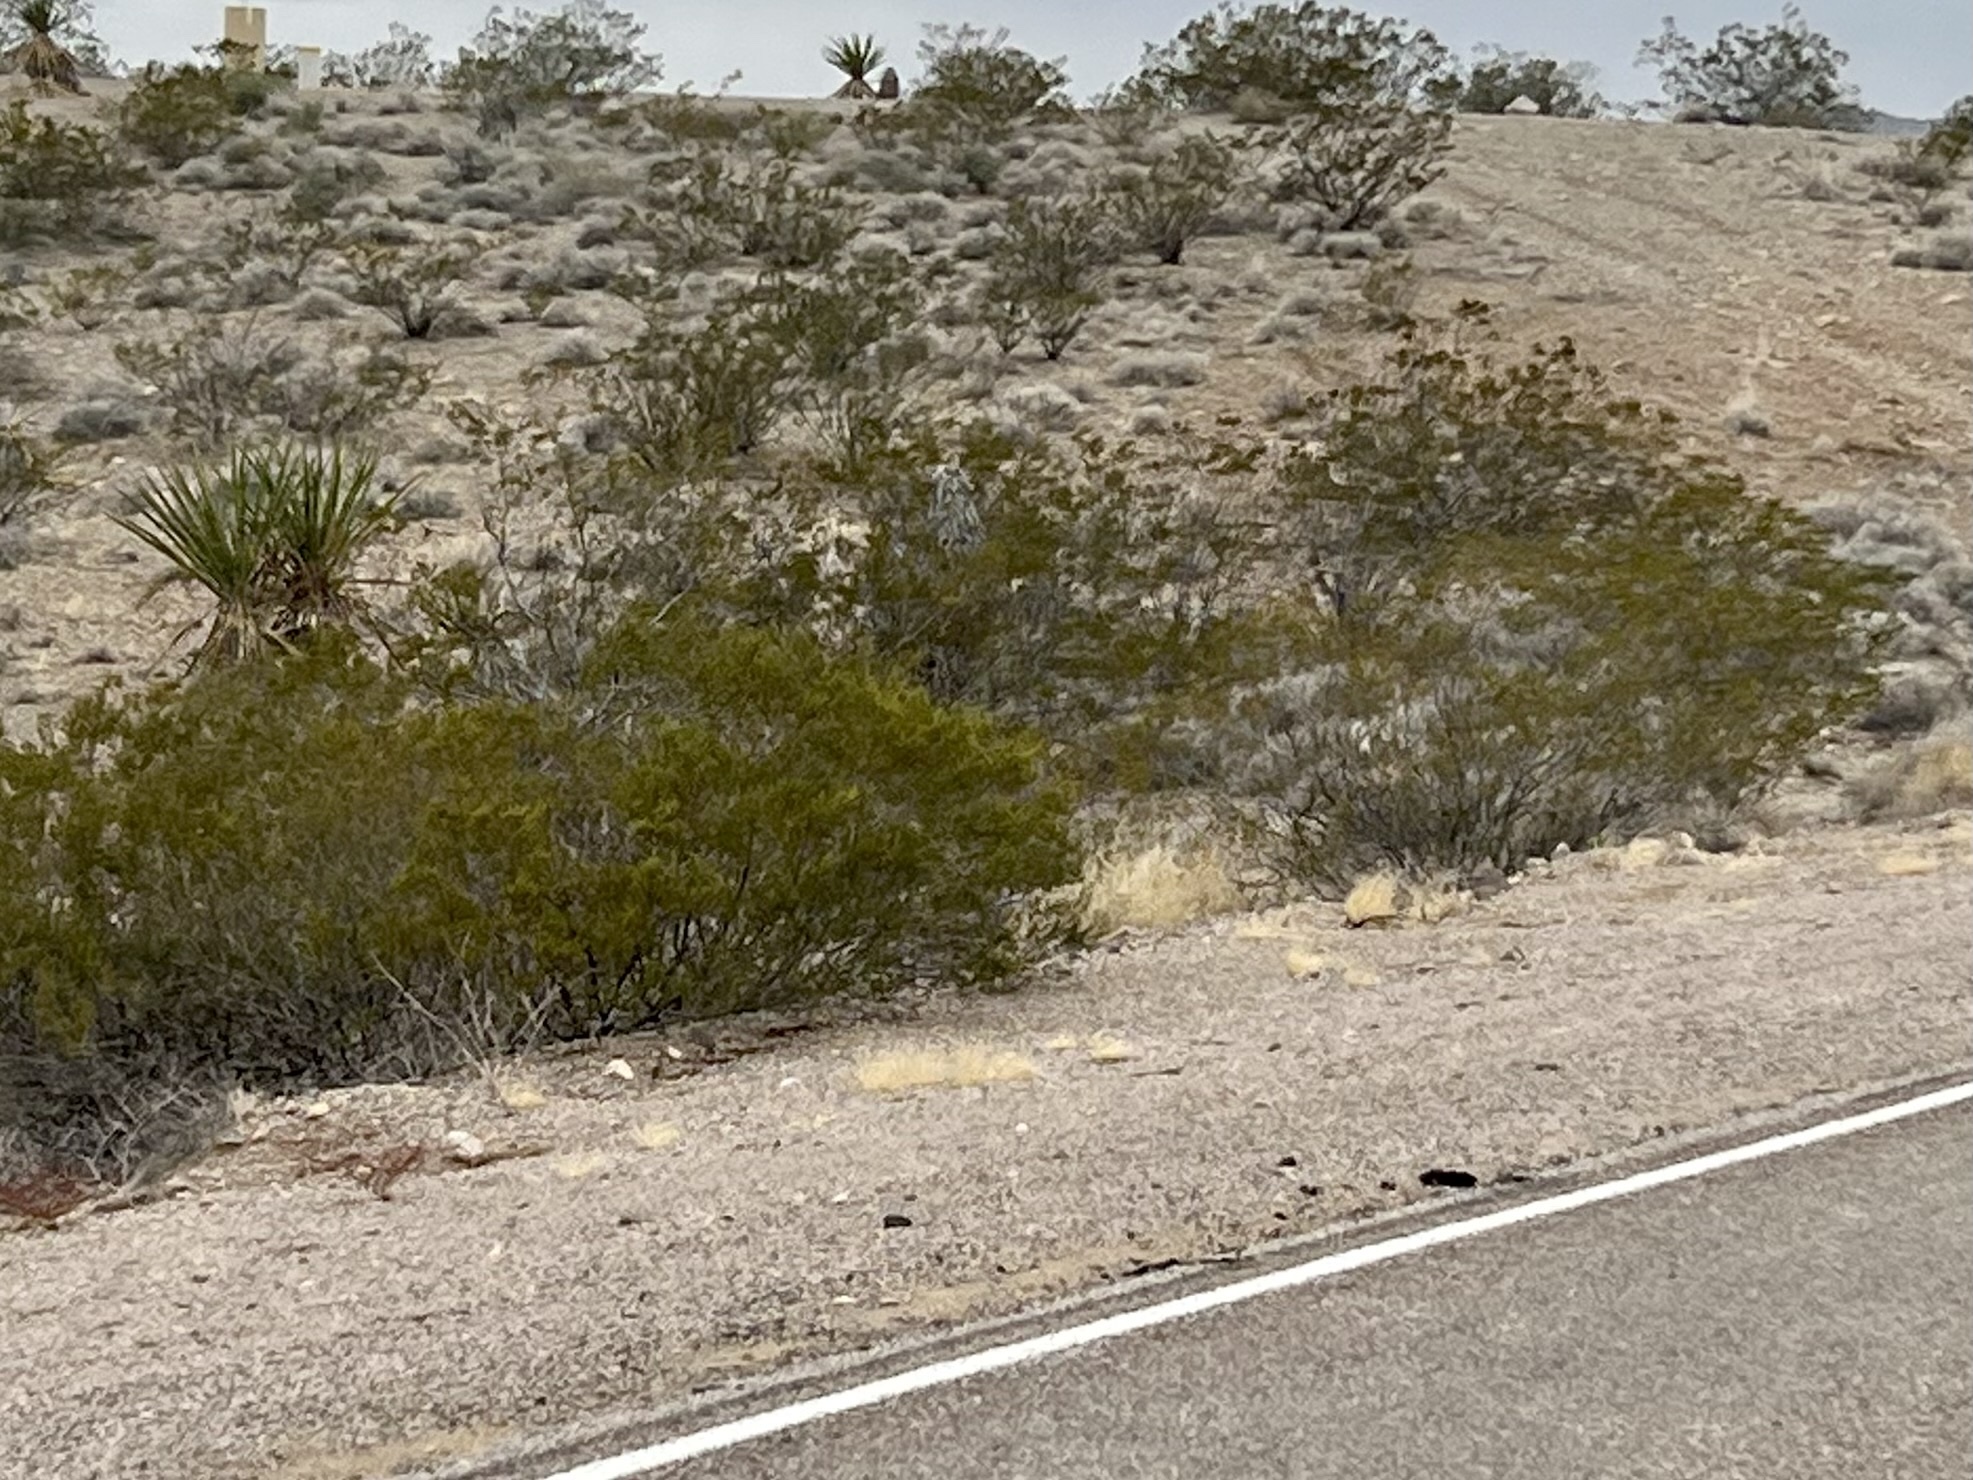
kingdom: Plantae
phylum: Tracheophyta
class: Magnoliopsida
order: Zygophyllales
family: Zygophyllaceae
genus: Larrea
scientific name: Larrea tridentata
